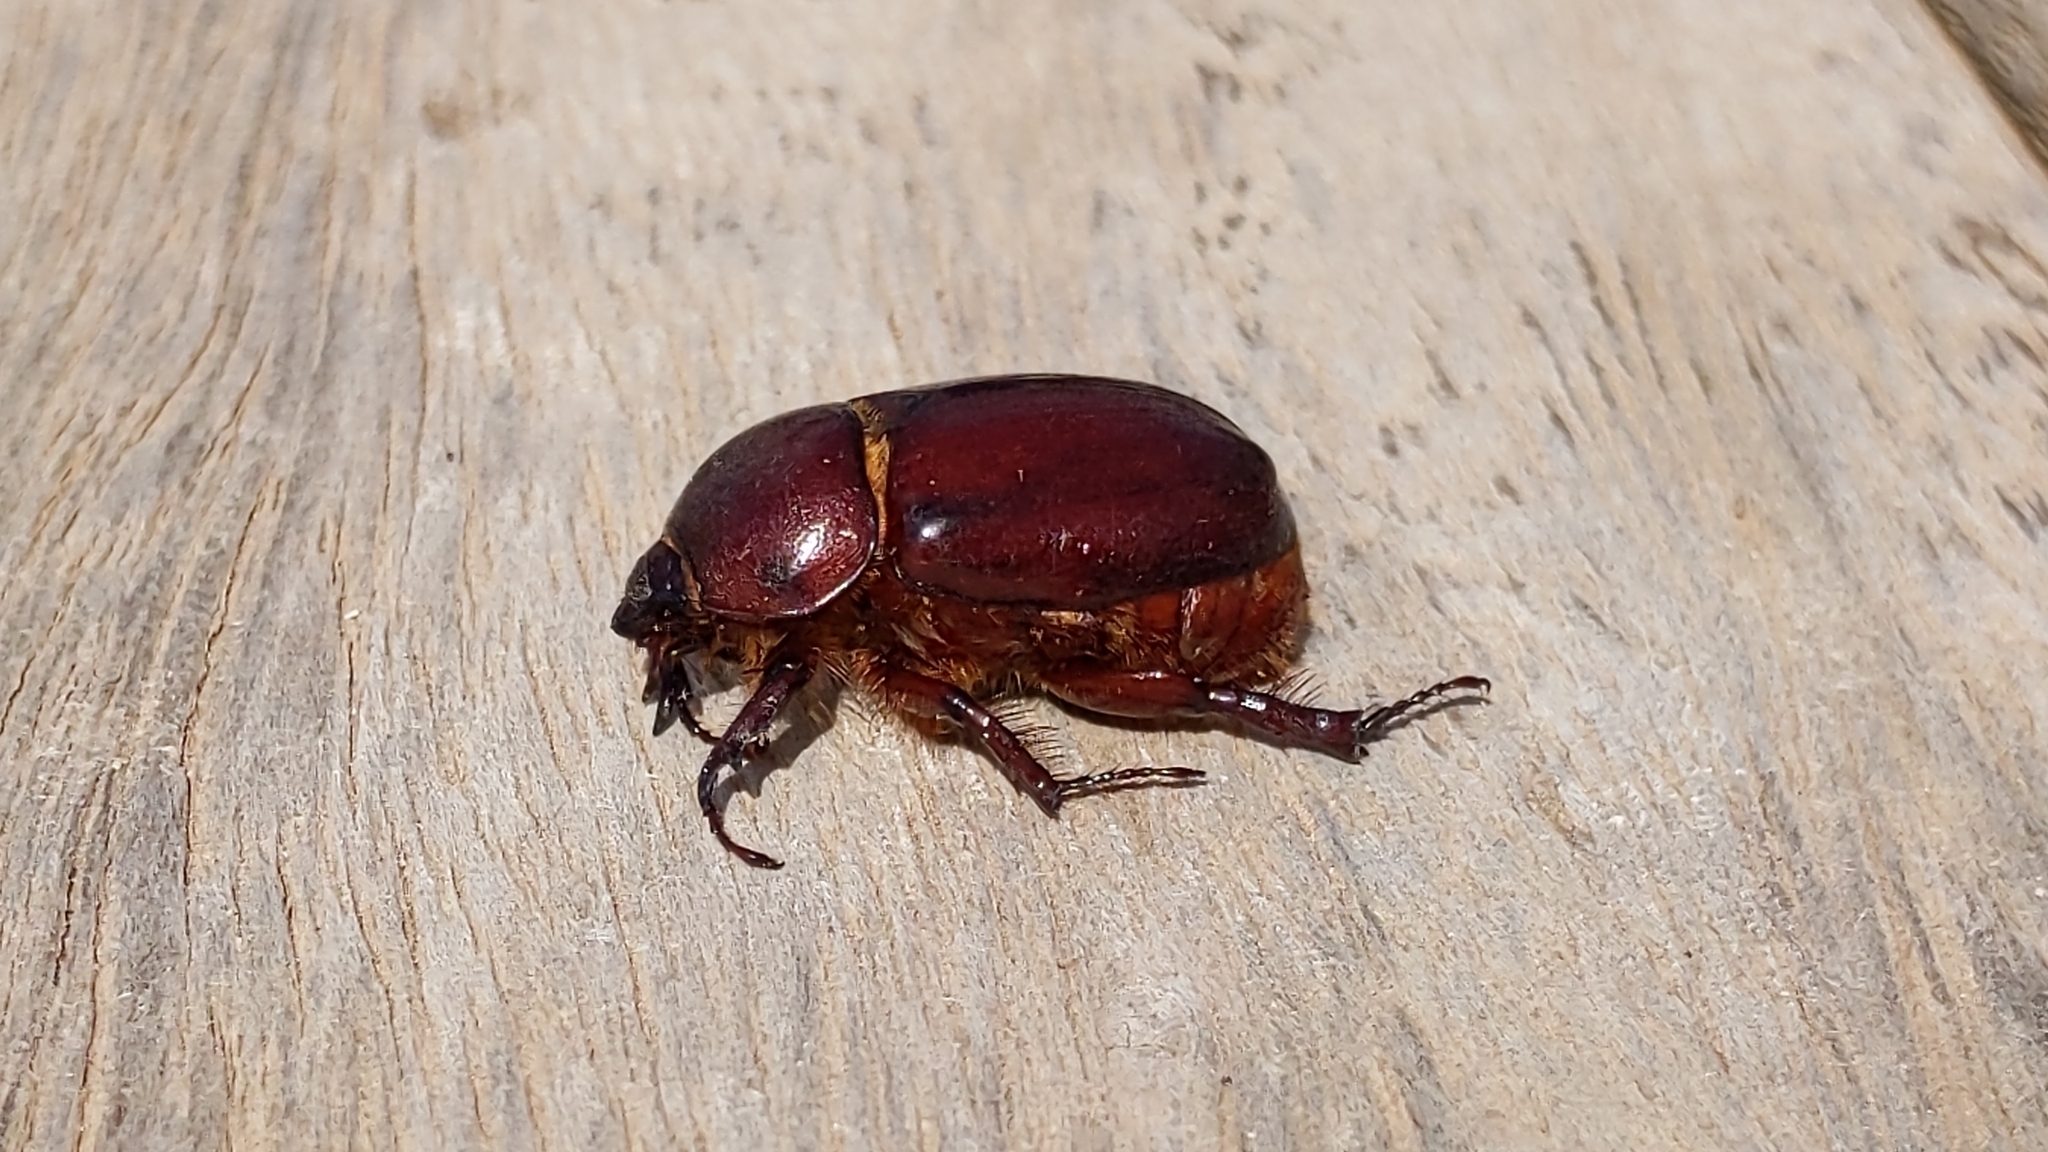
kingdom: Animalia
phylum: Arthropoda
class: Insecta
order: Coleoptera
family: Scarabaeidae
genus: Phyllognathus
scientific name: Phyllognathus excavatus
